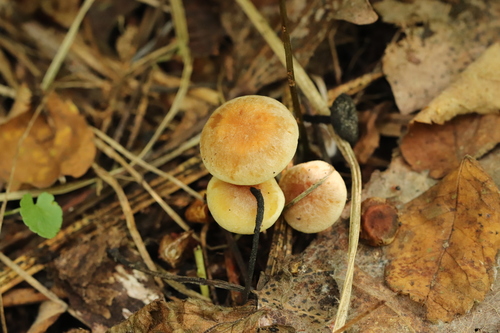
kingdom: Fungi
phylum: Basidiomycota
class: Agaricomycetes
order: Agaricales
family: Strophariaceae
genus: Hypholoma
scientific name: Hypholoma fasciculare
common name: Sulphur tuft
